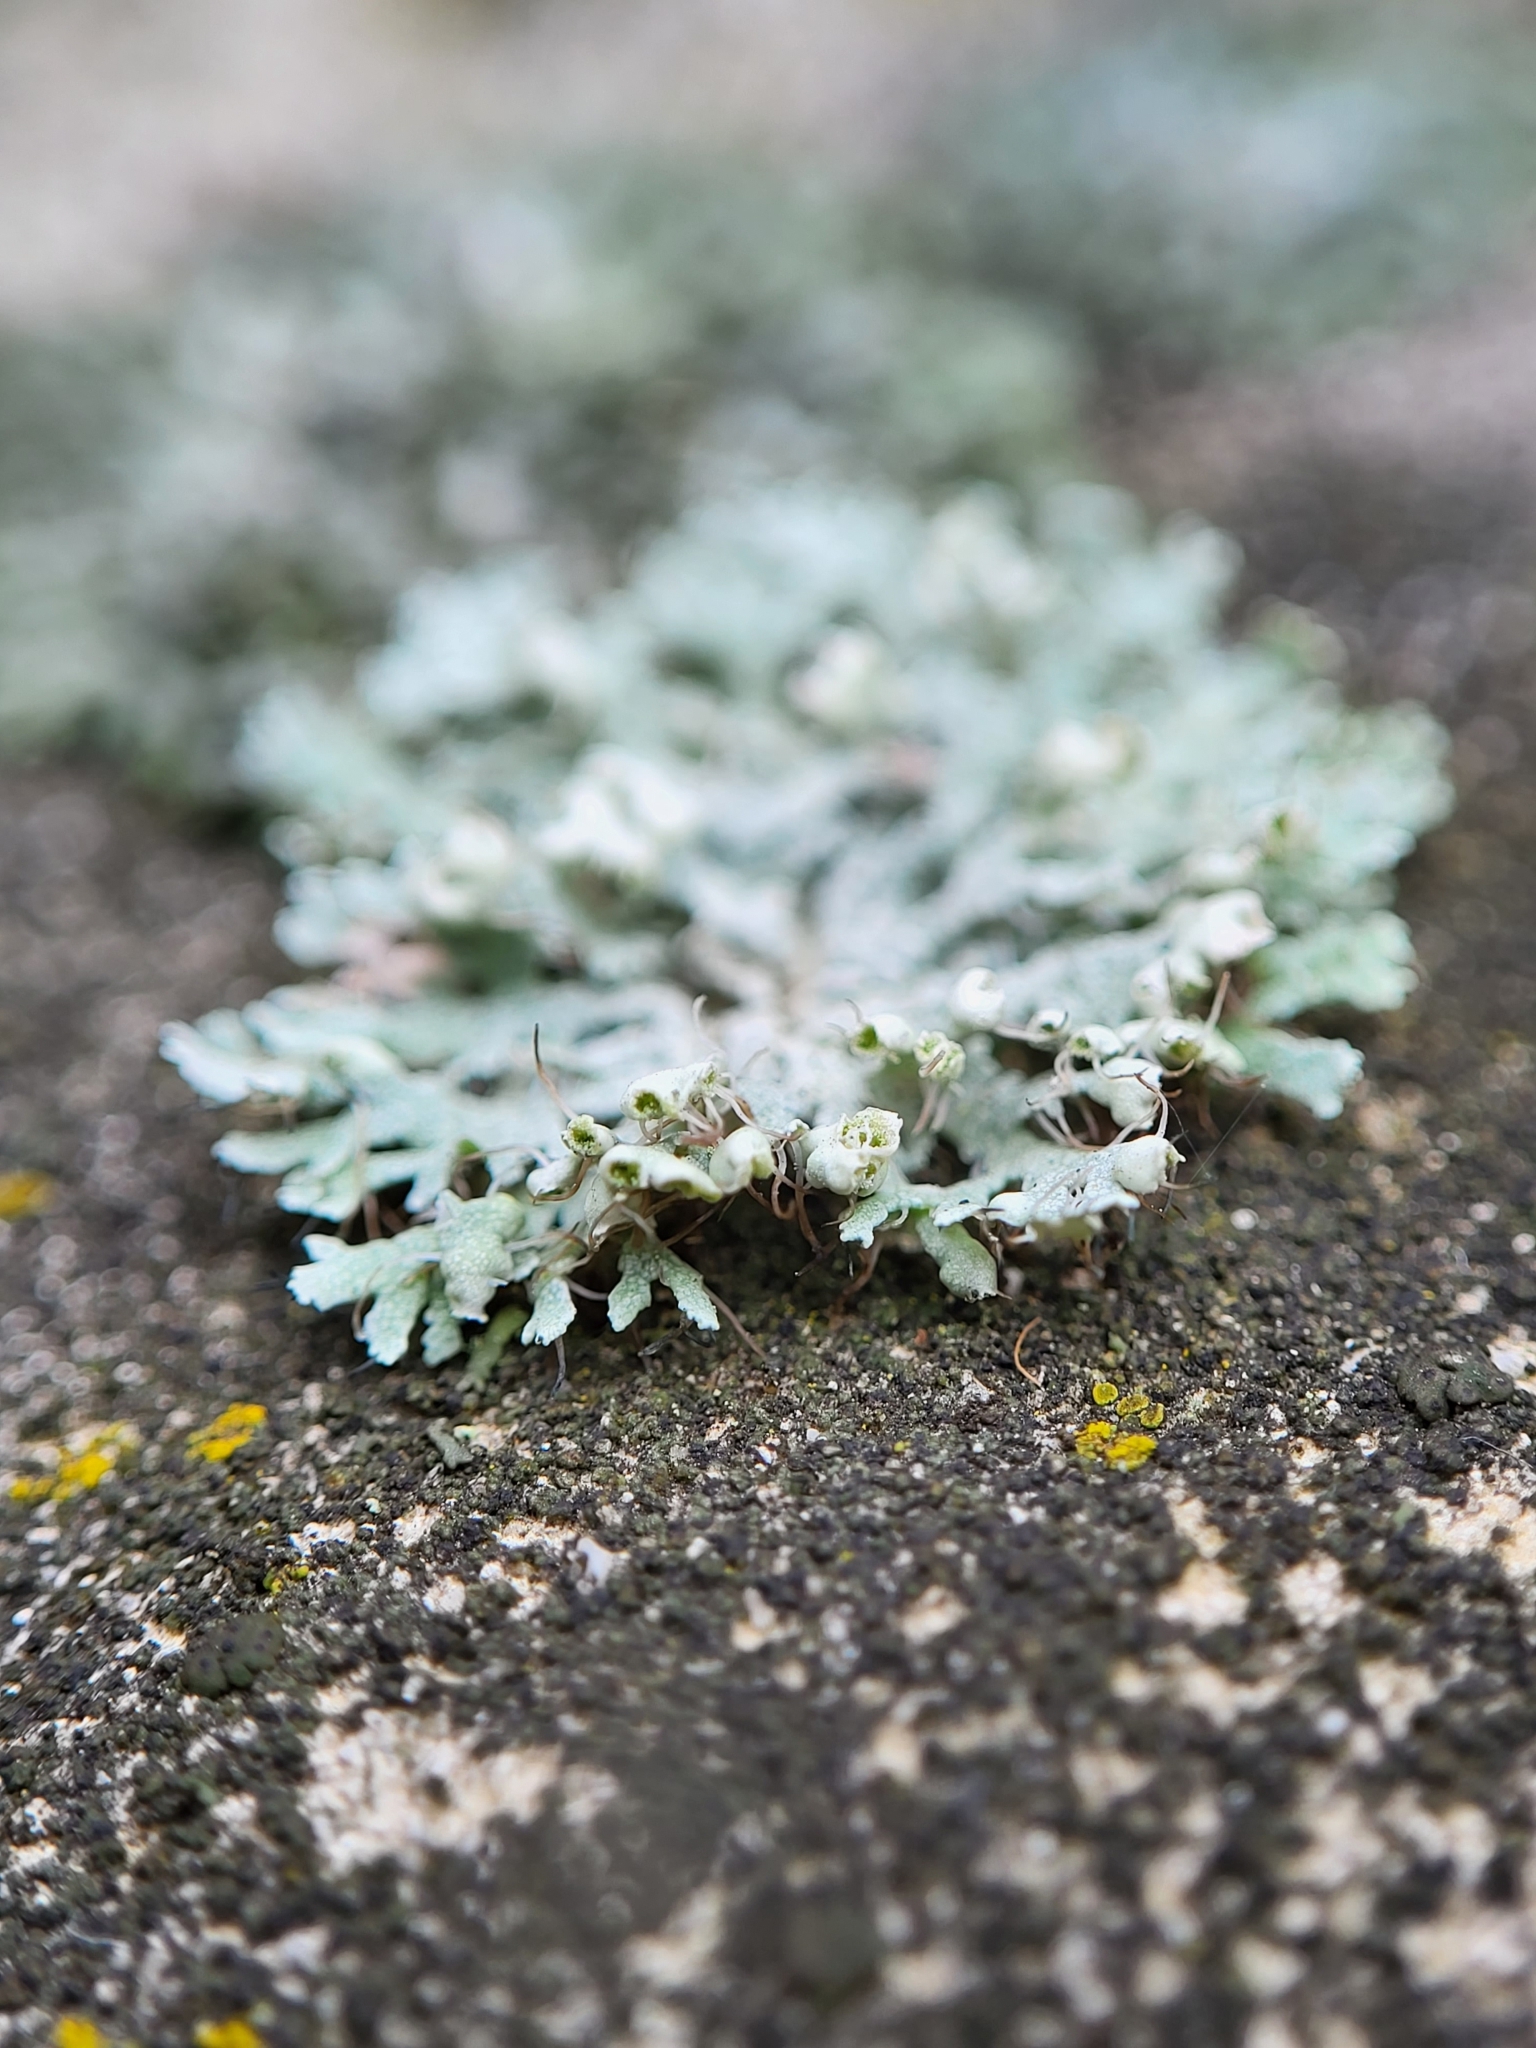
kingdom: Fungi
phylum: Ascomycota
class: Lecanoromycetes
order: Caliciales
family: Physciaceae
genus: Physcia
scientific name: Physcia adscendens
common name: Hooded rosette lichen
